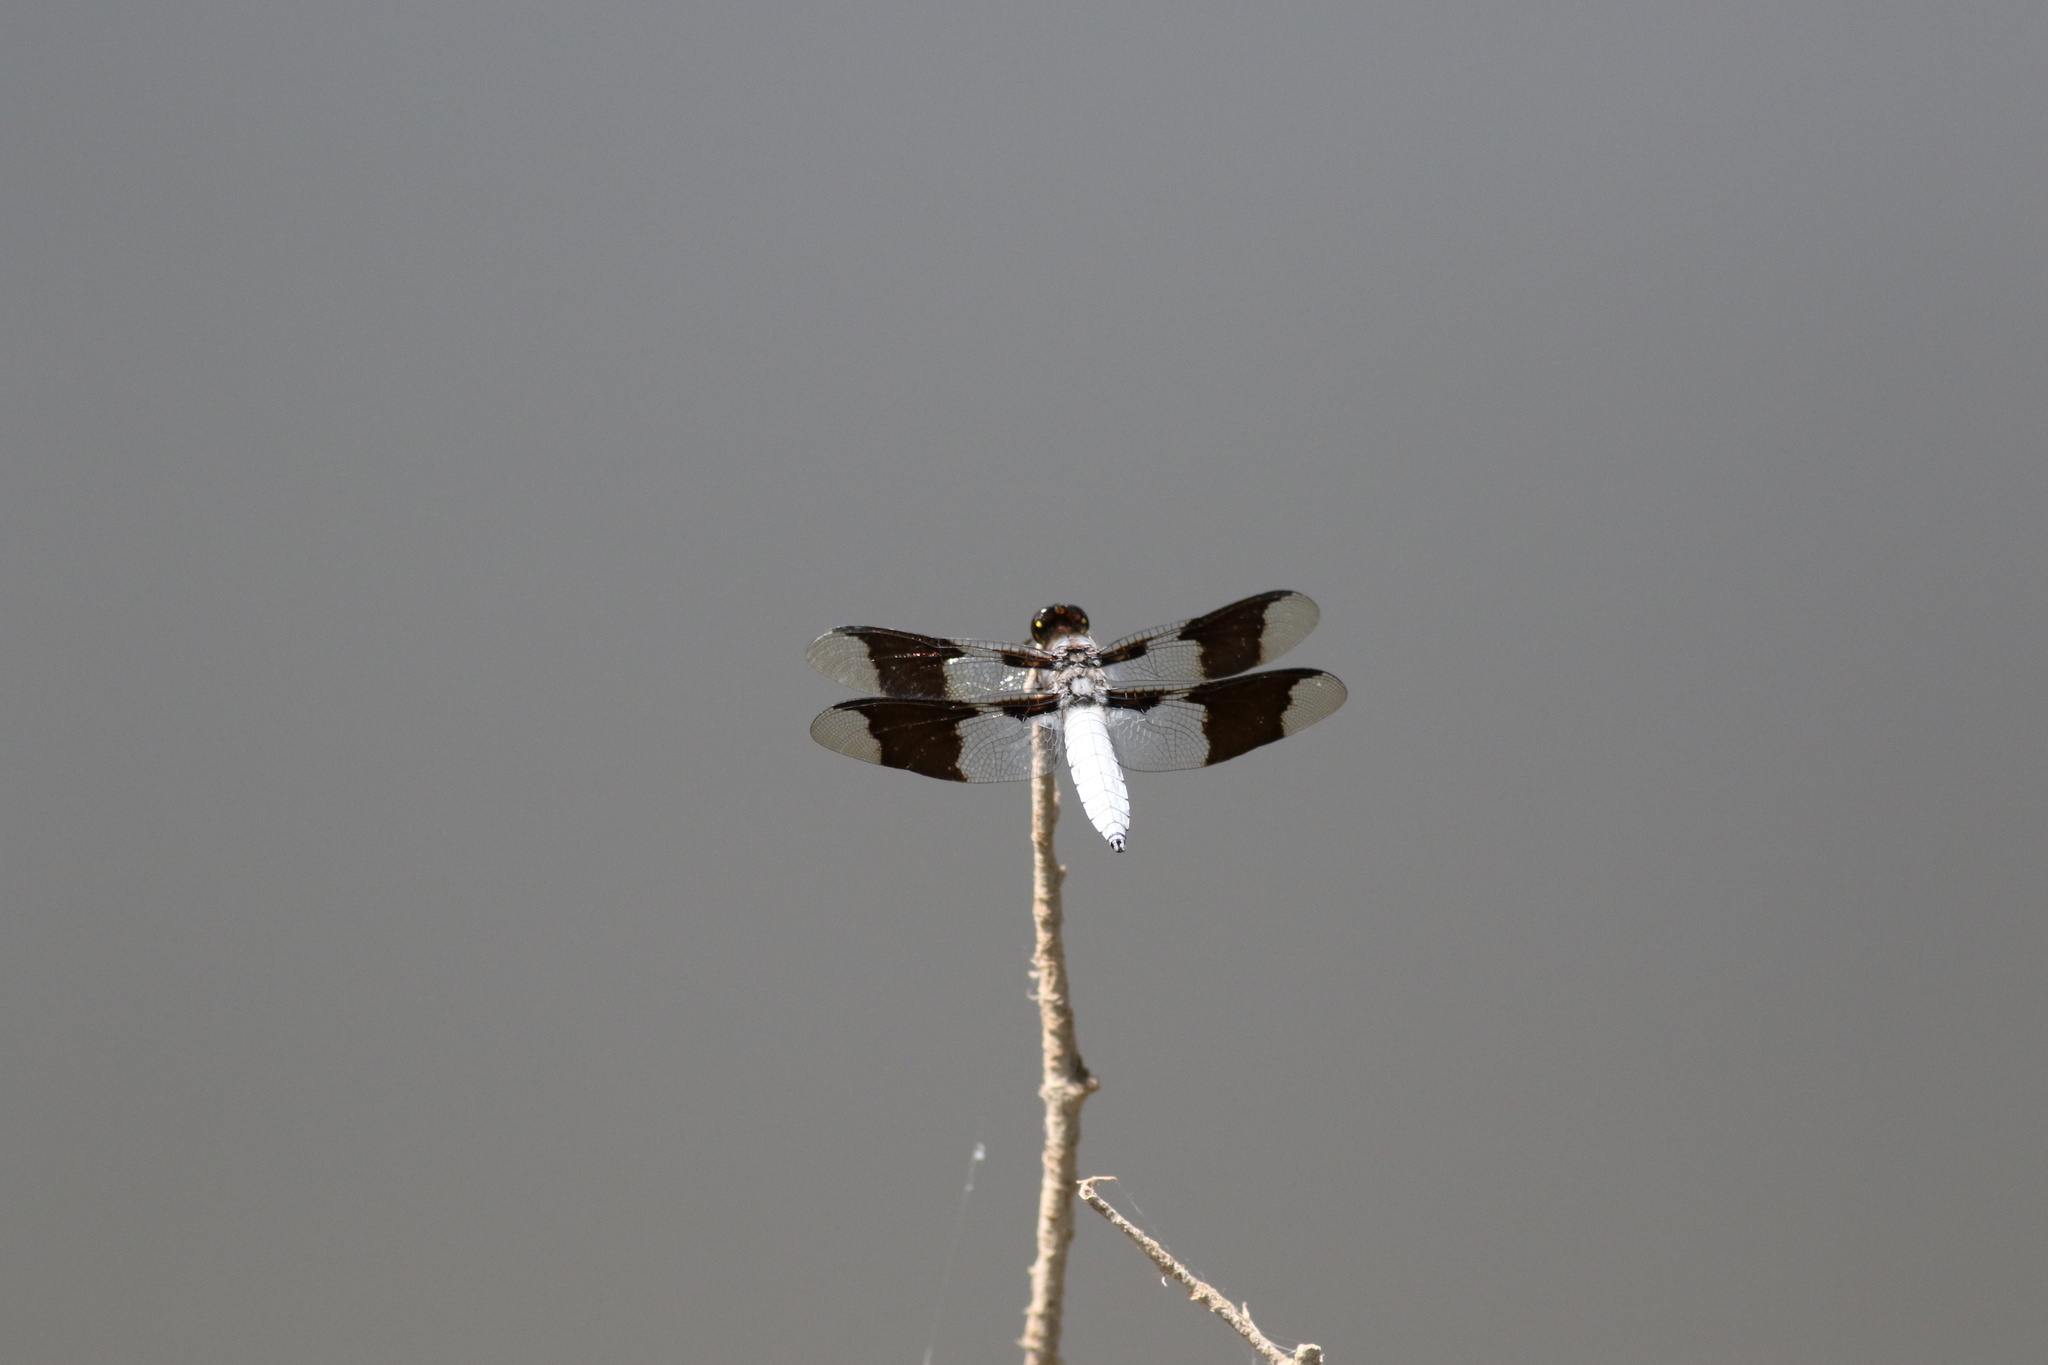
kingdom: Animalia
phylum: Arthropoda
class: Insecta
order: Odonata
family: Libellulidae
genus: Plathemis
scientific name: Plathemis lydia
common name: Common whitetail
